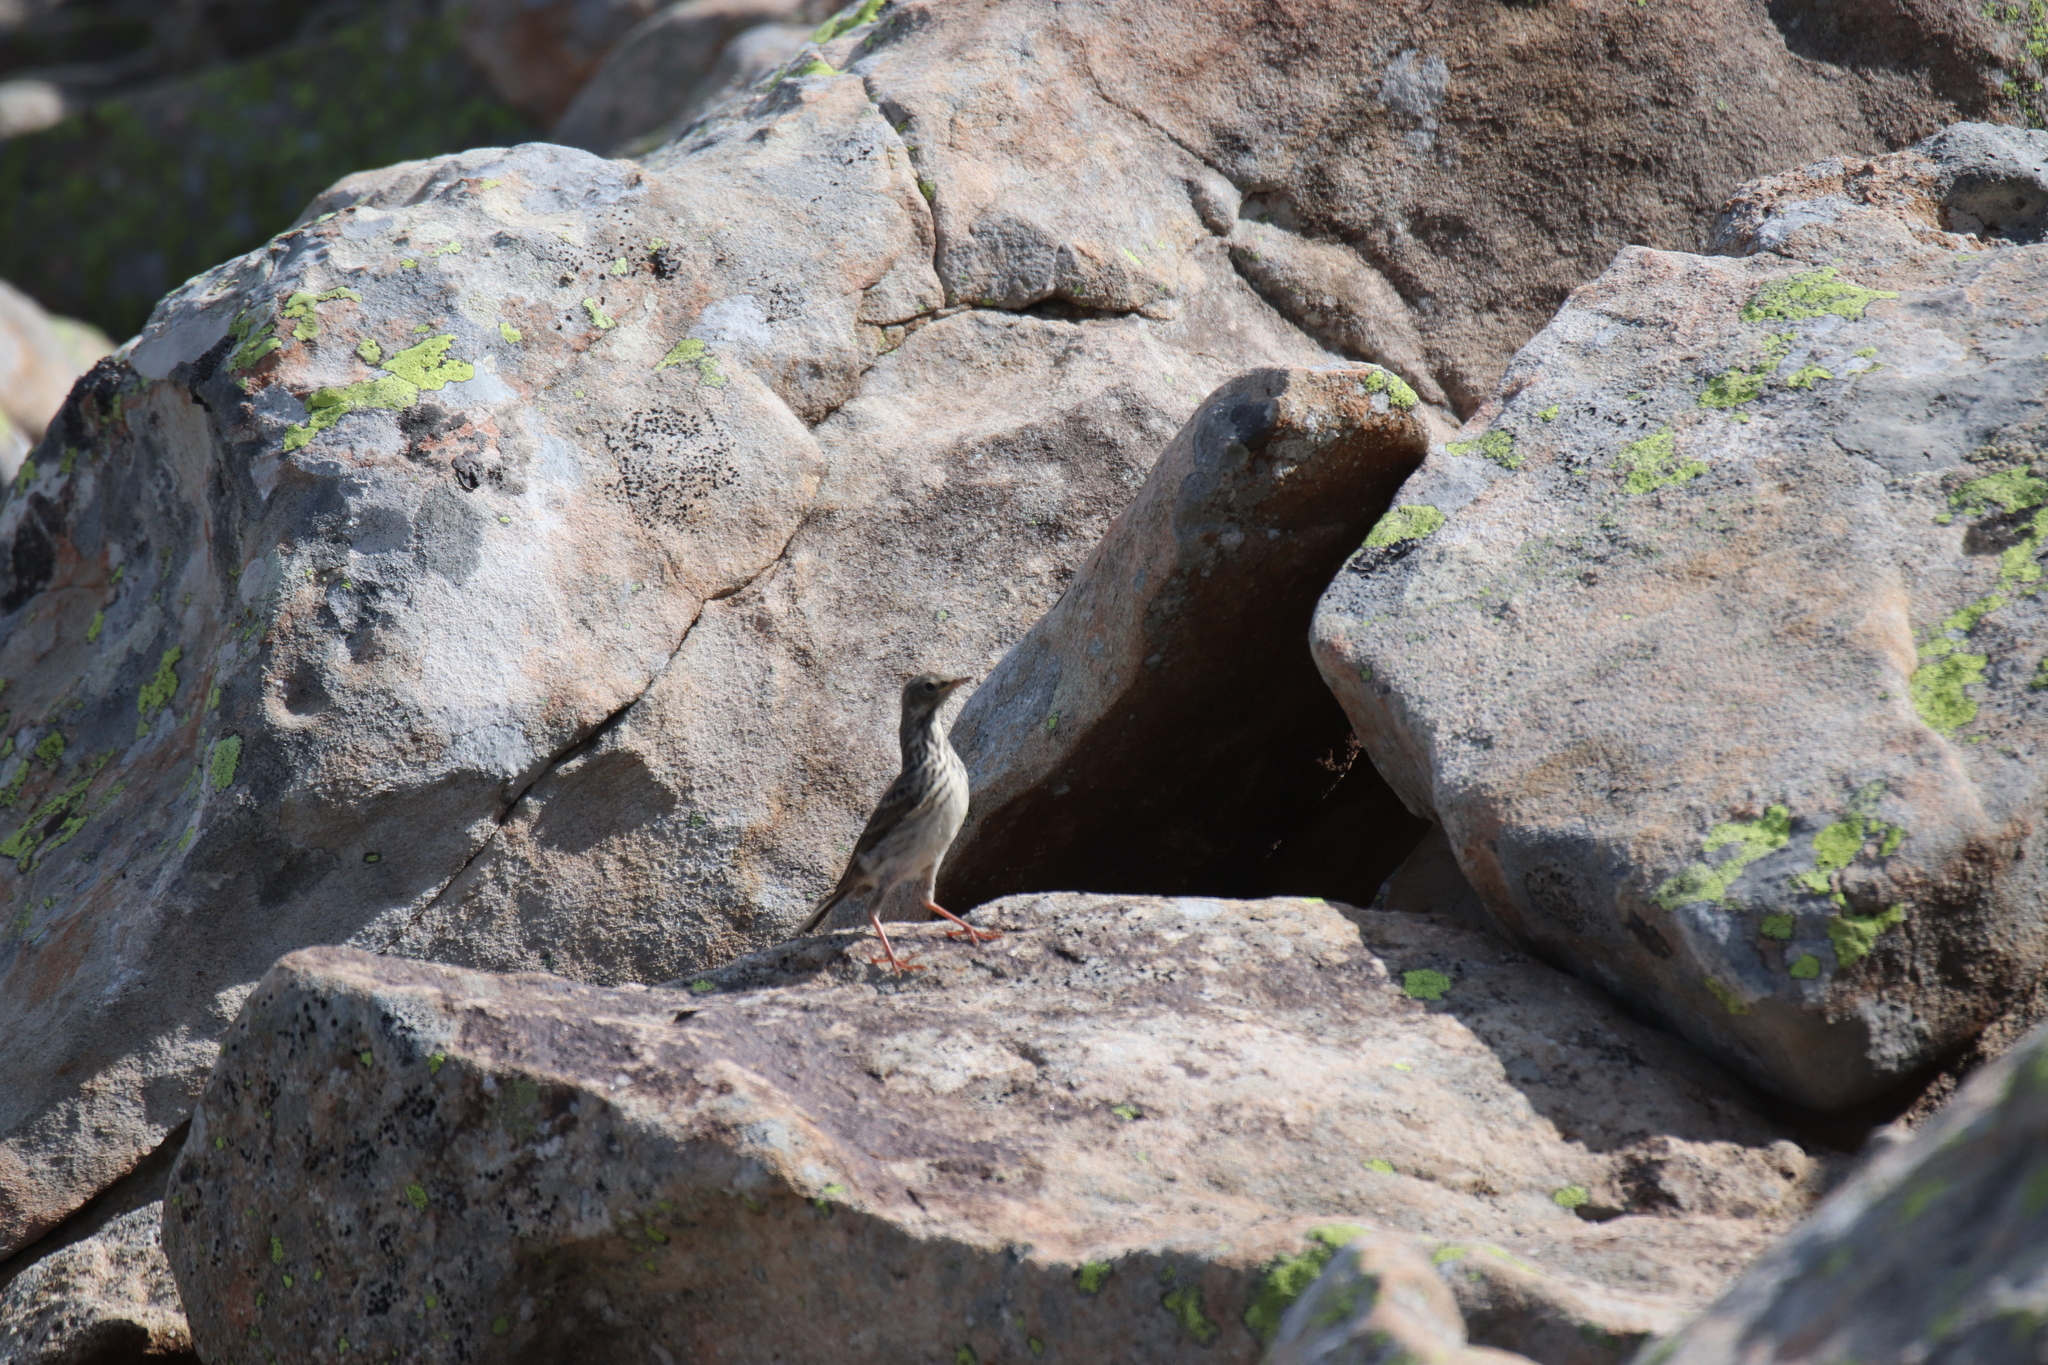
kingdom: Animalia
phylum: Chordata
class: Aves
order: Passeriformes
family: Motacillidae
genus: Anthus
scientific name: Anthus pratensis
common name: Meadow pipit
